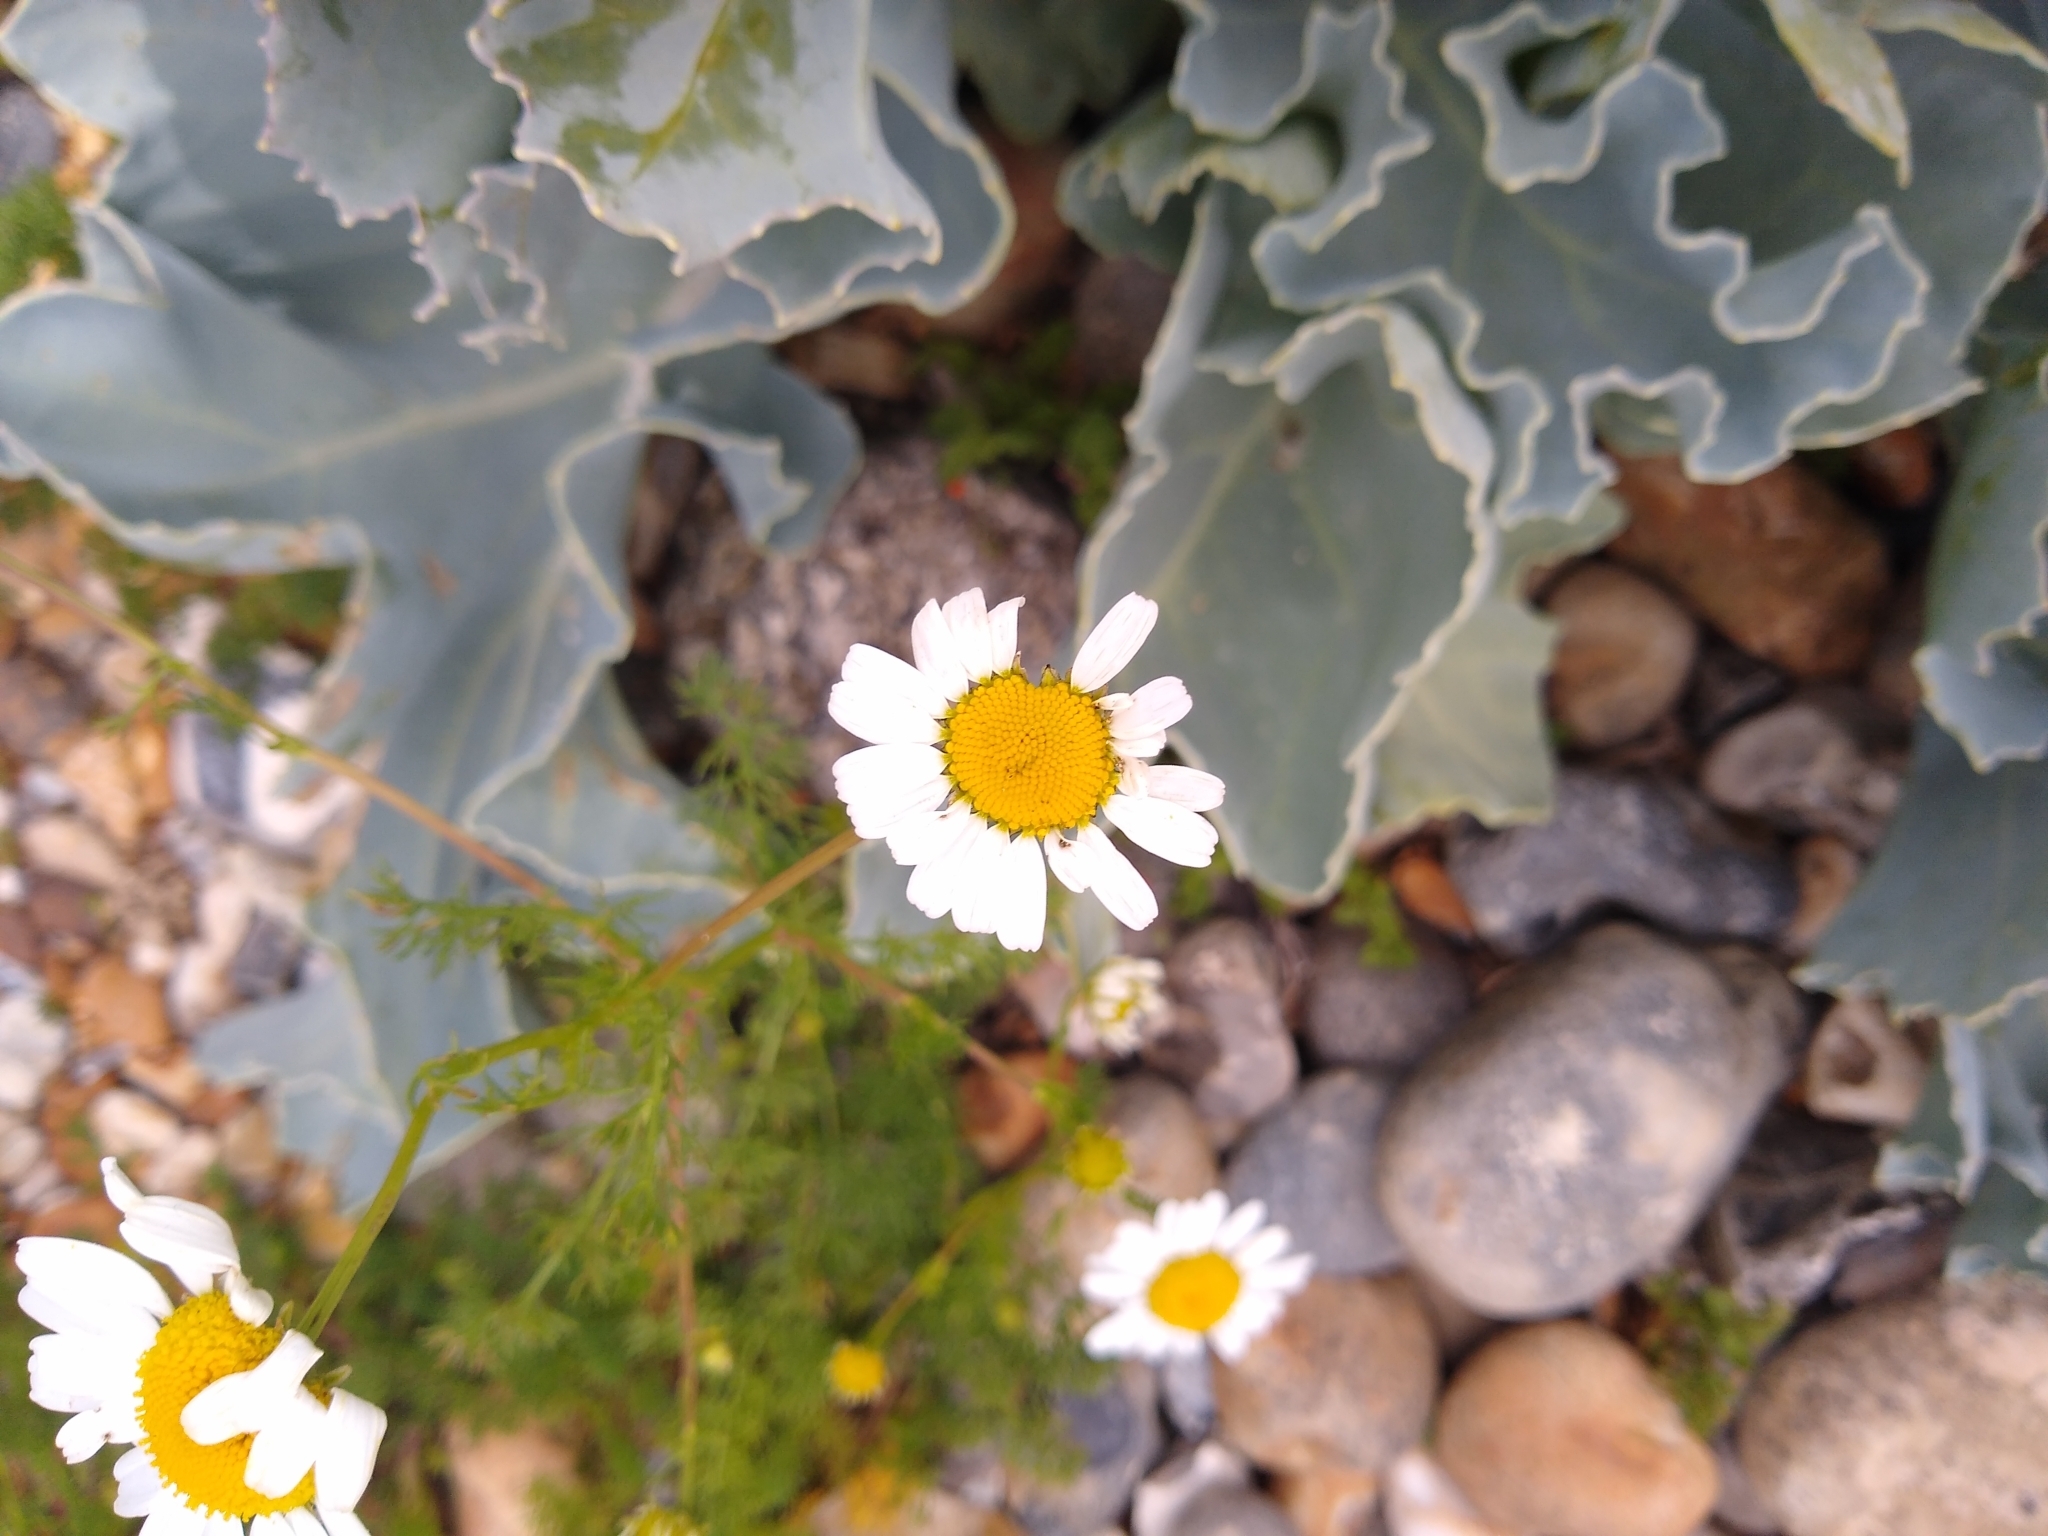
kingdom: Plantae
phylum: Tracheophyta
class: Magnoliopsida
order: Asterales
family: Asteraceae
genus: Tripleurospermum
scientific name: Tripleurospermum maritimum
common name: Sea mayweed
